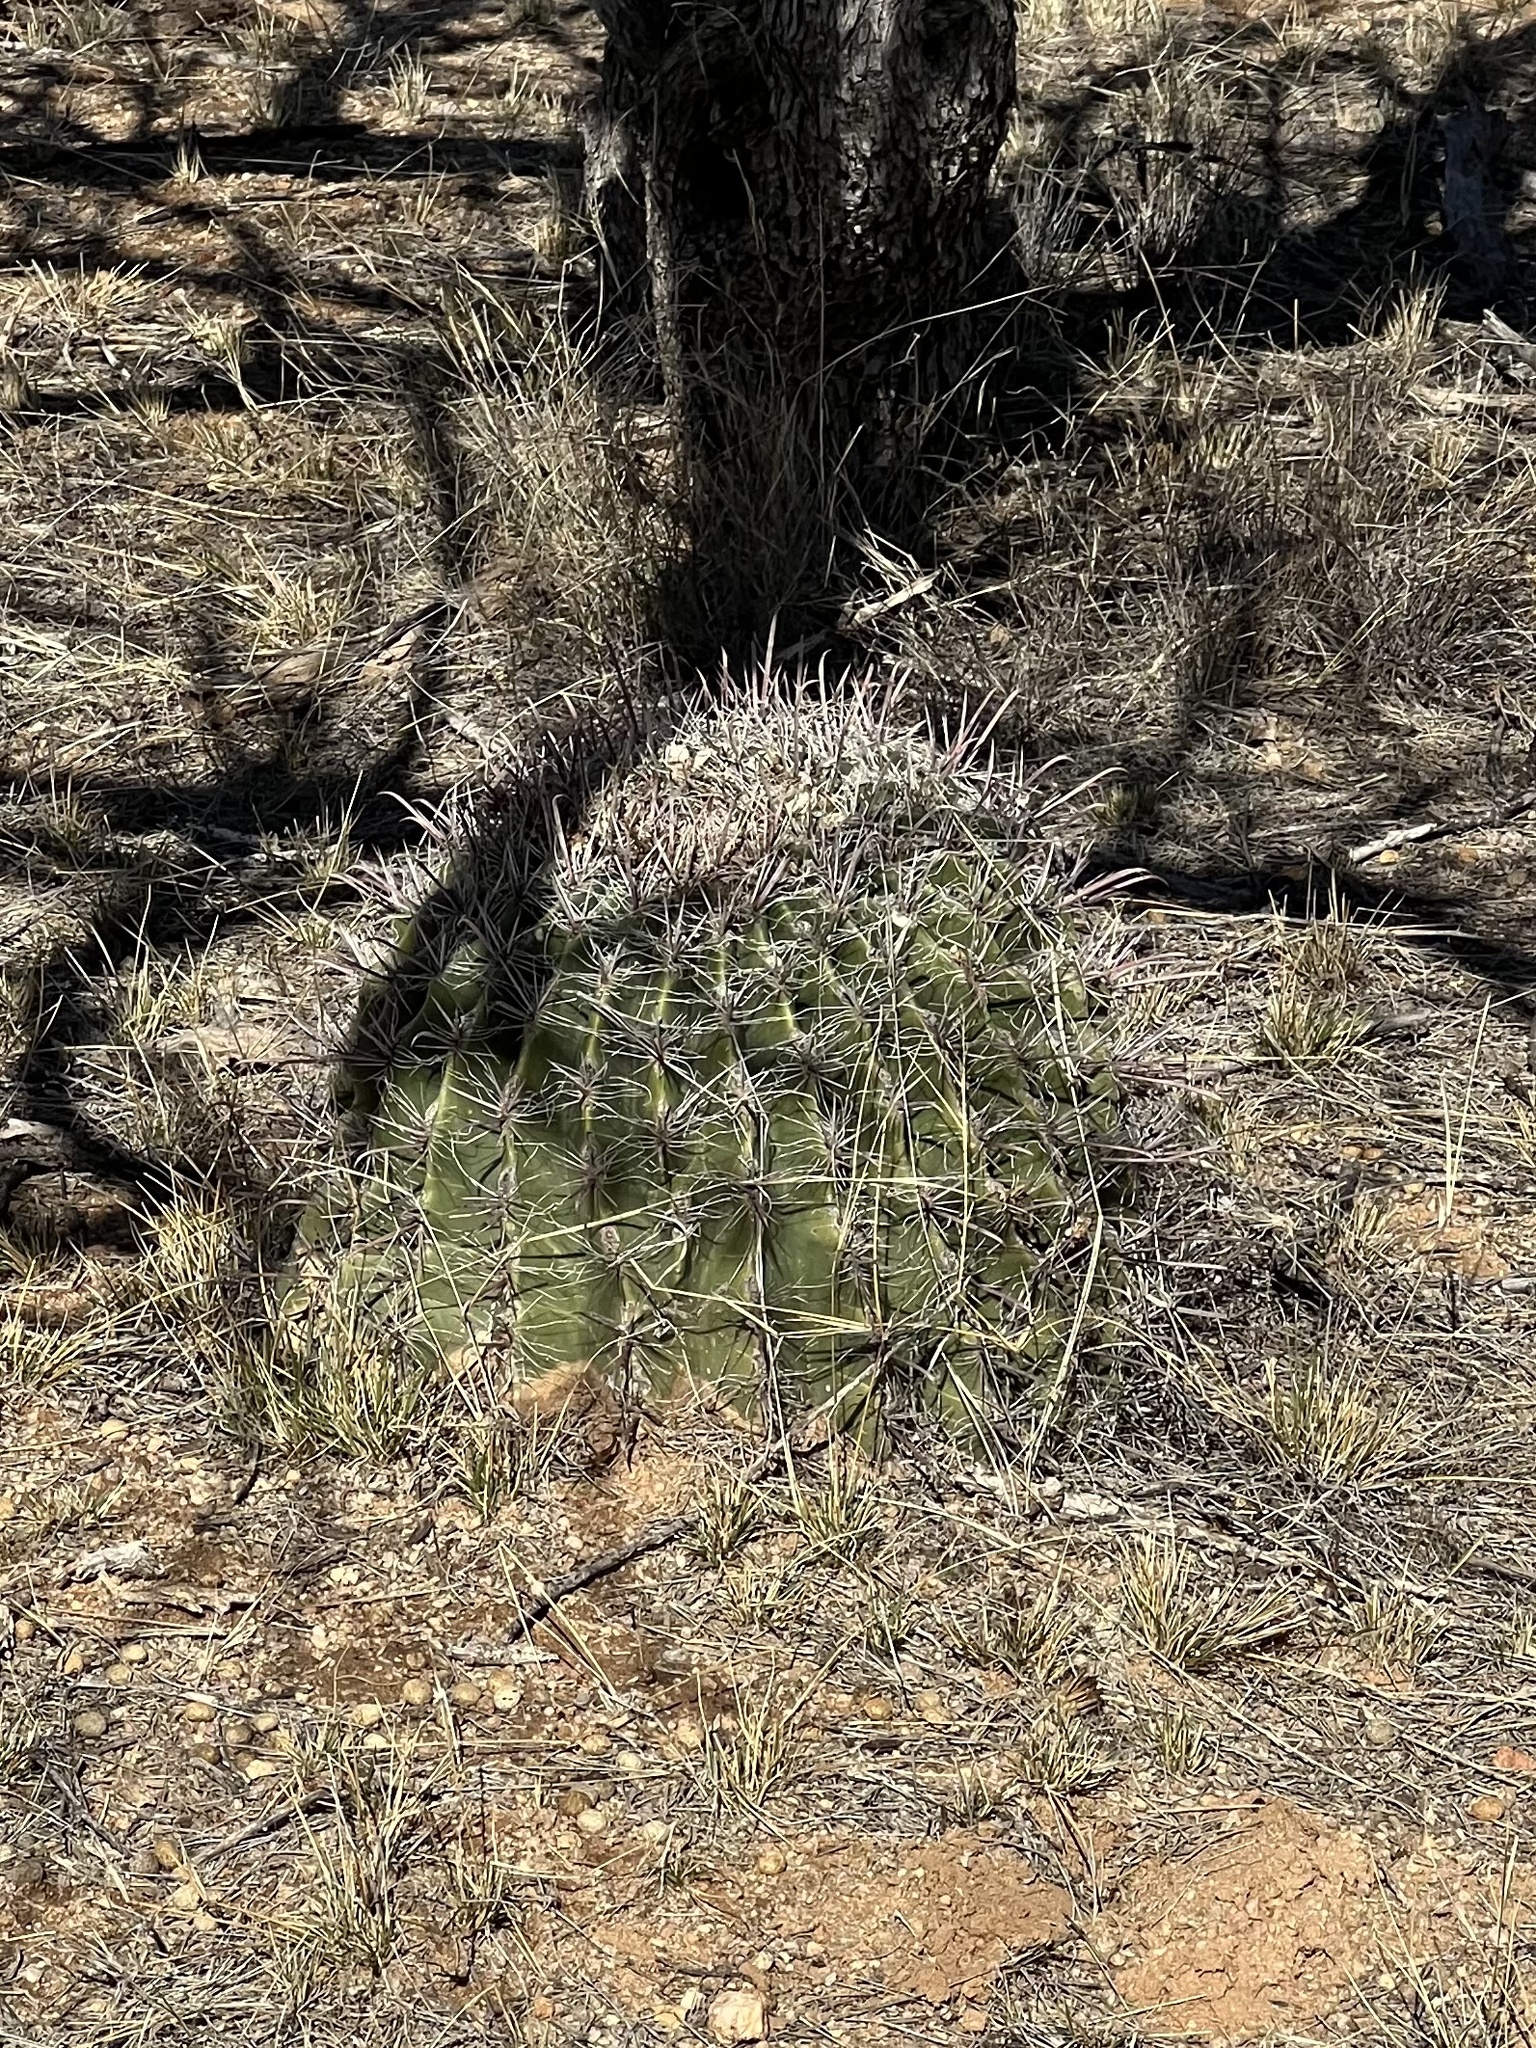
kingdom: Plantae
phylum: Tracheophyta
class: Magnoliopsida
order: Caryophyllales
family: Cactaceae
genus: Ferocactus
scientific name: Ferocactus wislizeni
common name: Candy barrel cactus
